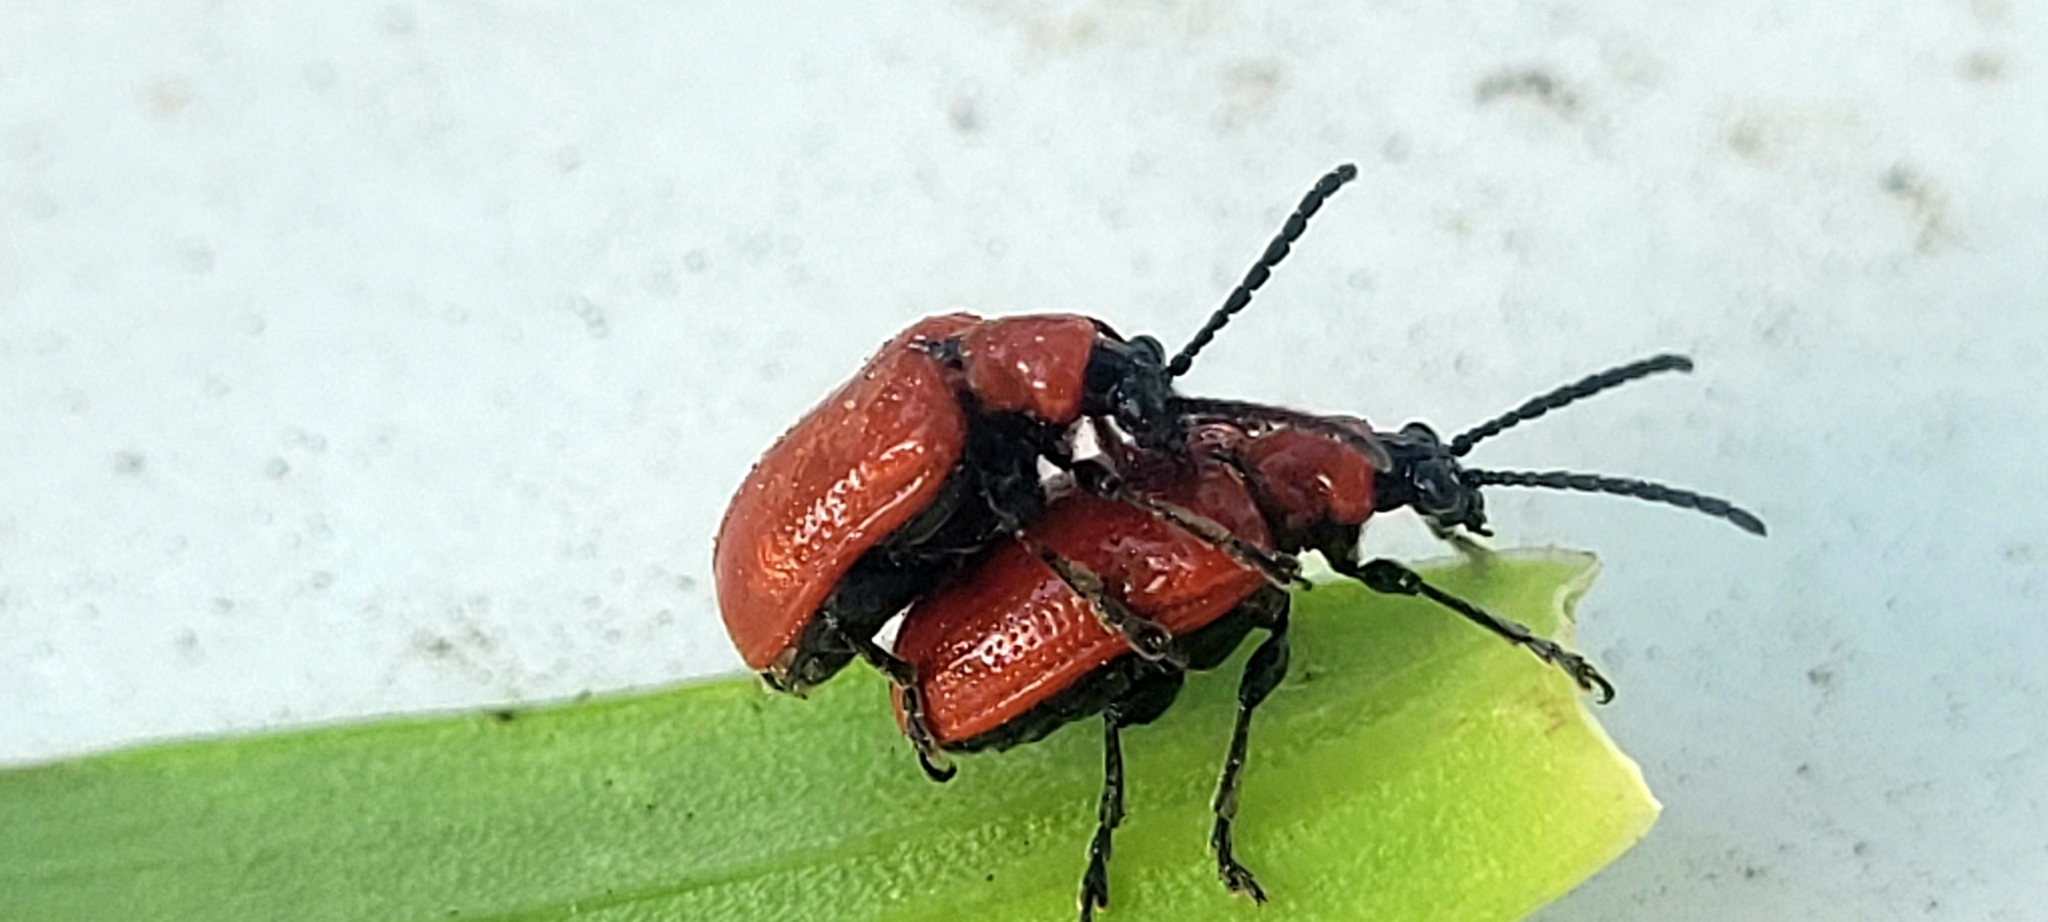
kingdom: Animalia
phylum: Arthropoda
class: Insecta
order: Coleoptera
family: Chrysomelidae
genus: Lilioceris
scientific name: Lilioceris lilii
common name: Lily beetle
